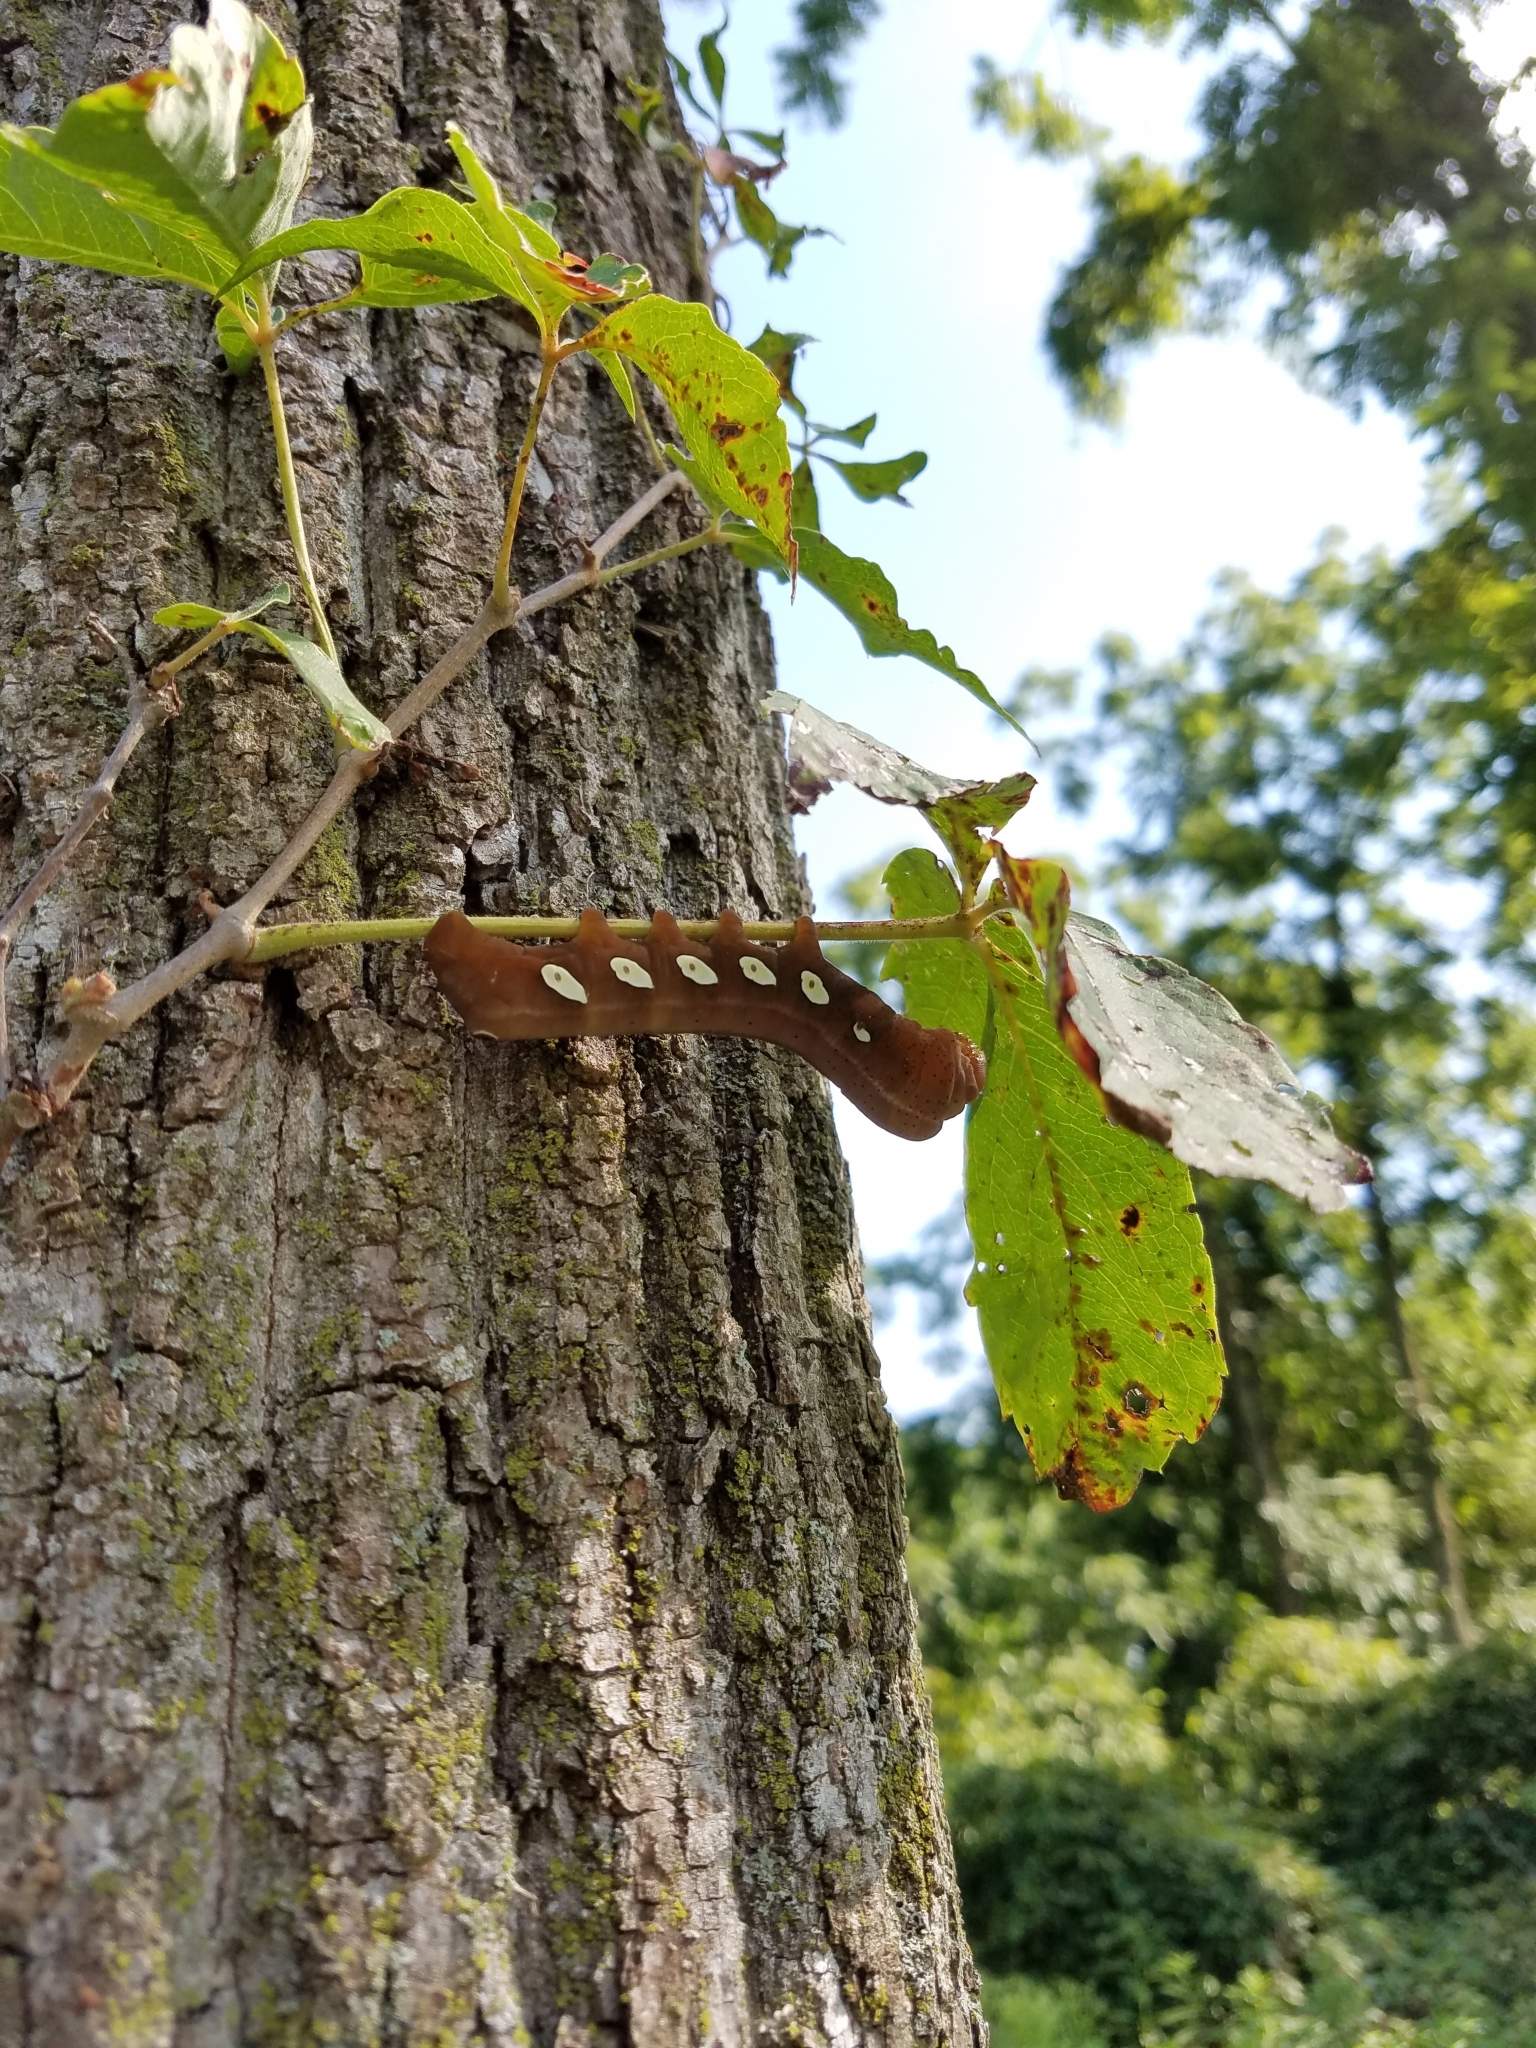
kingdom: Animalia
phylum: Arthropoda
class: Insecta
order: Lepidoptera
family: Sphingidae
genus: Eumorpha
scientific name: Eumorpha pandorus
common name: Pandora sphinx
